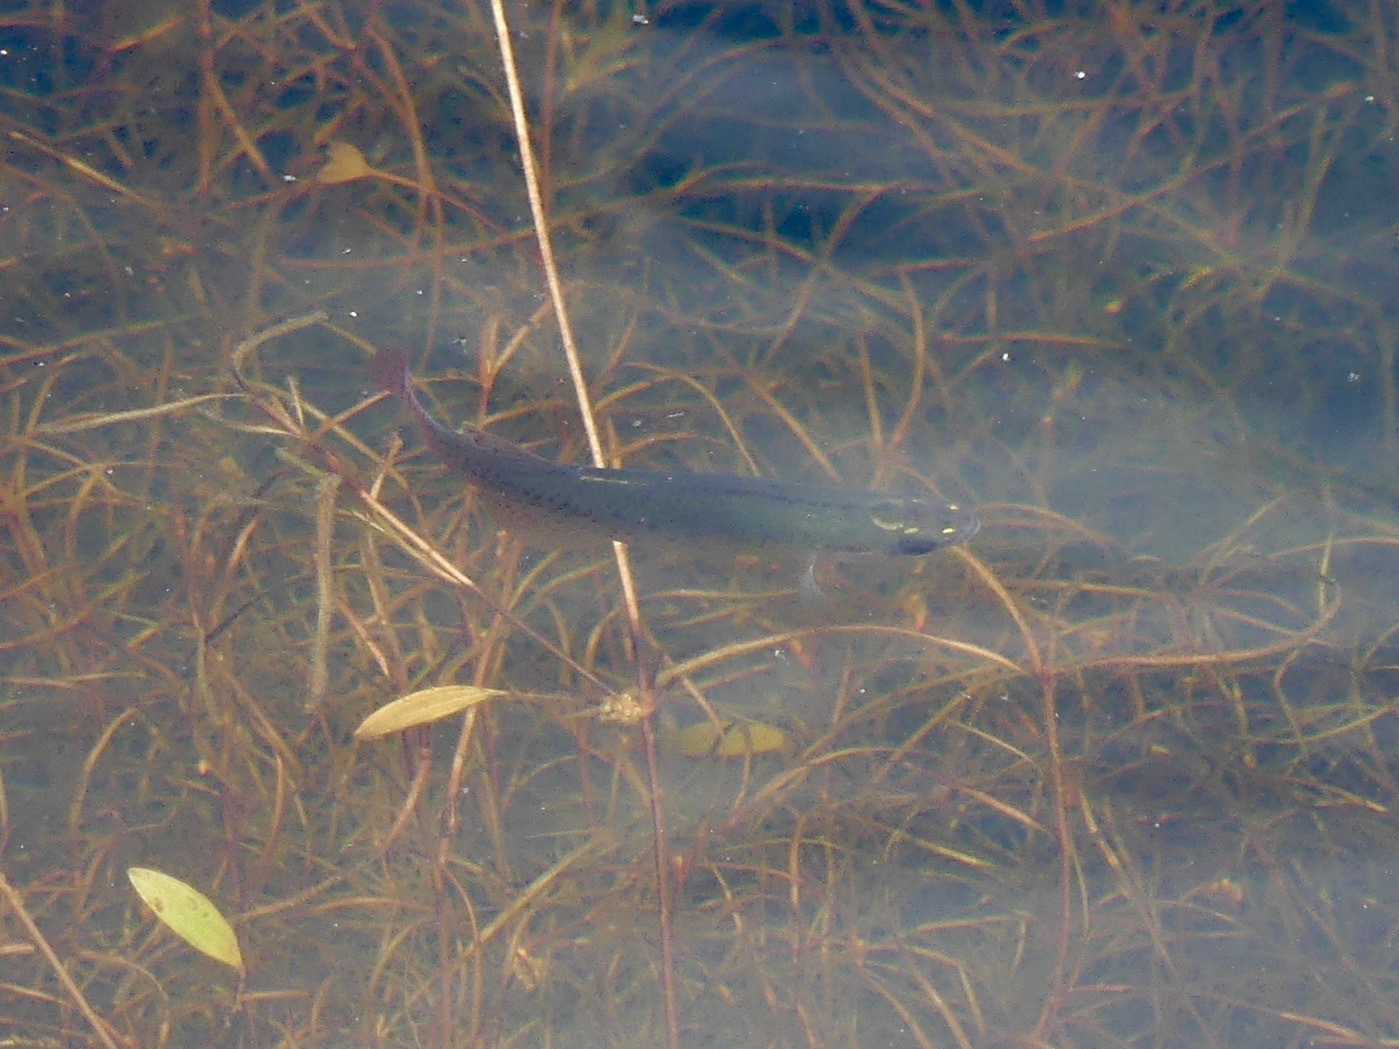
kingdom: Animalia
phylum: Chordata
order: Cyprinodontiformes
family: Fundulidae
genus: Fundulus
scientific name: Fundulus chrysotus
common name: Golden topminnow
